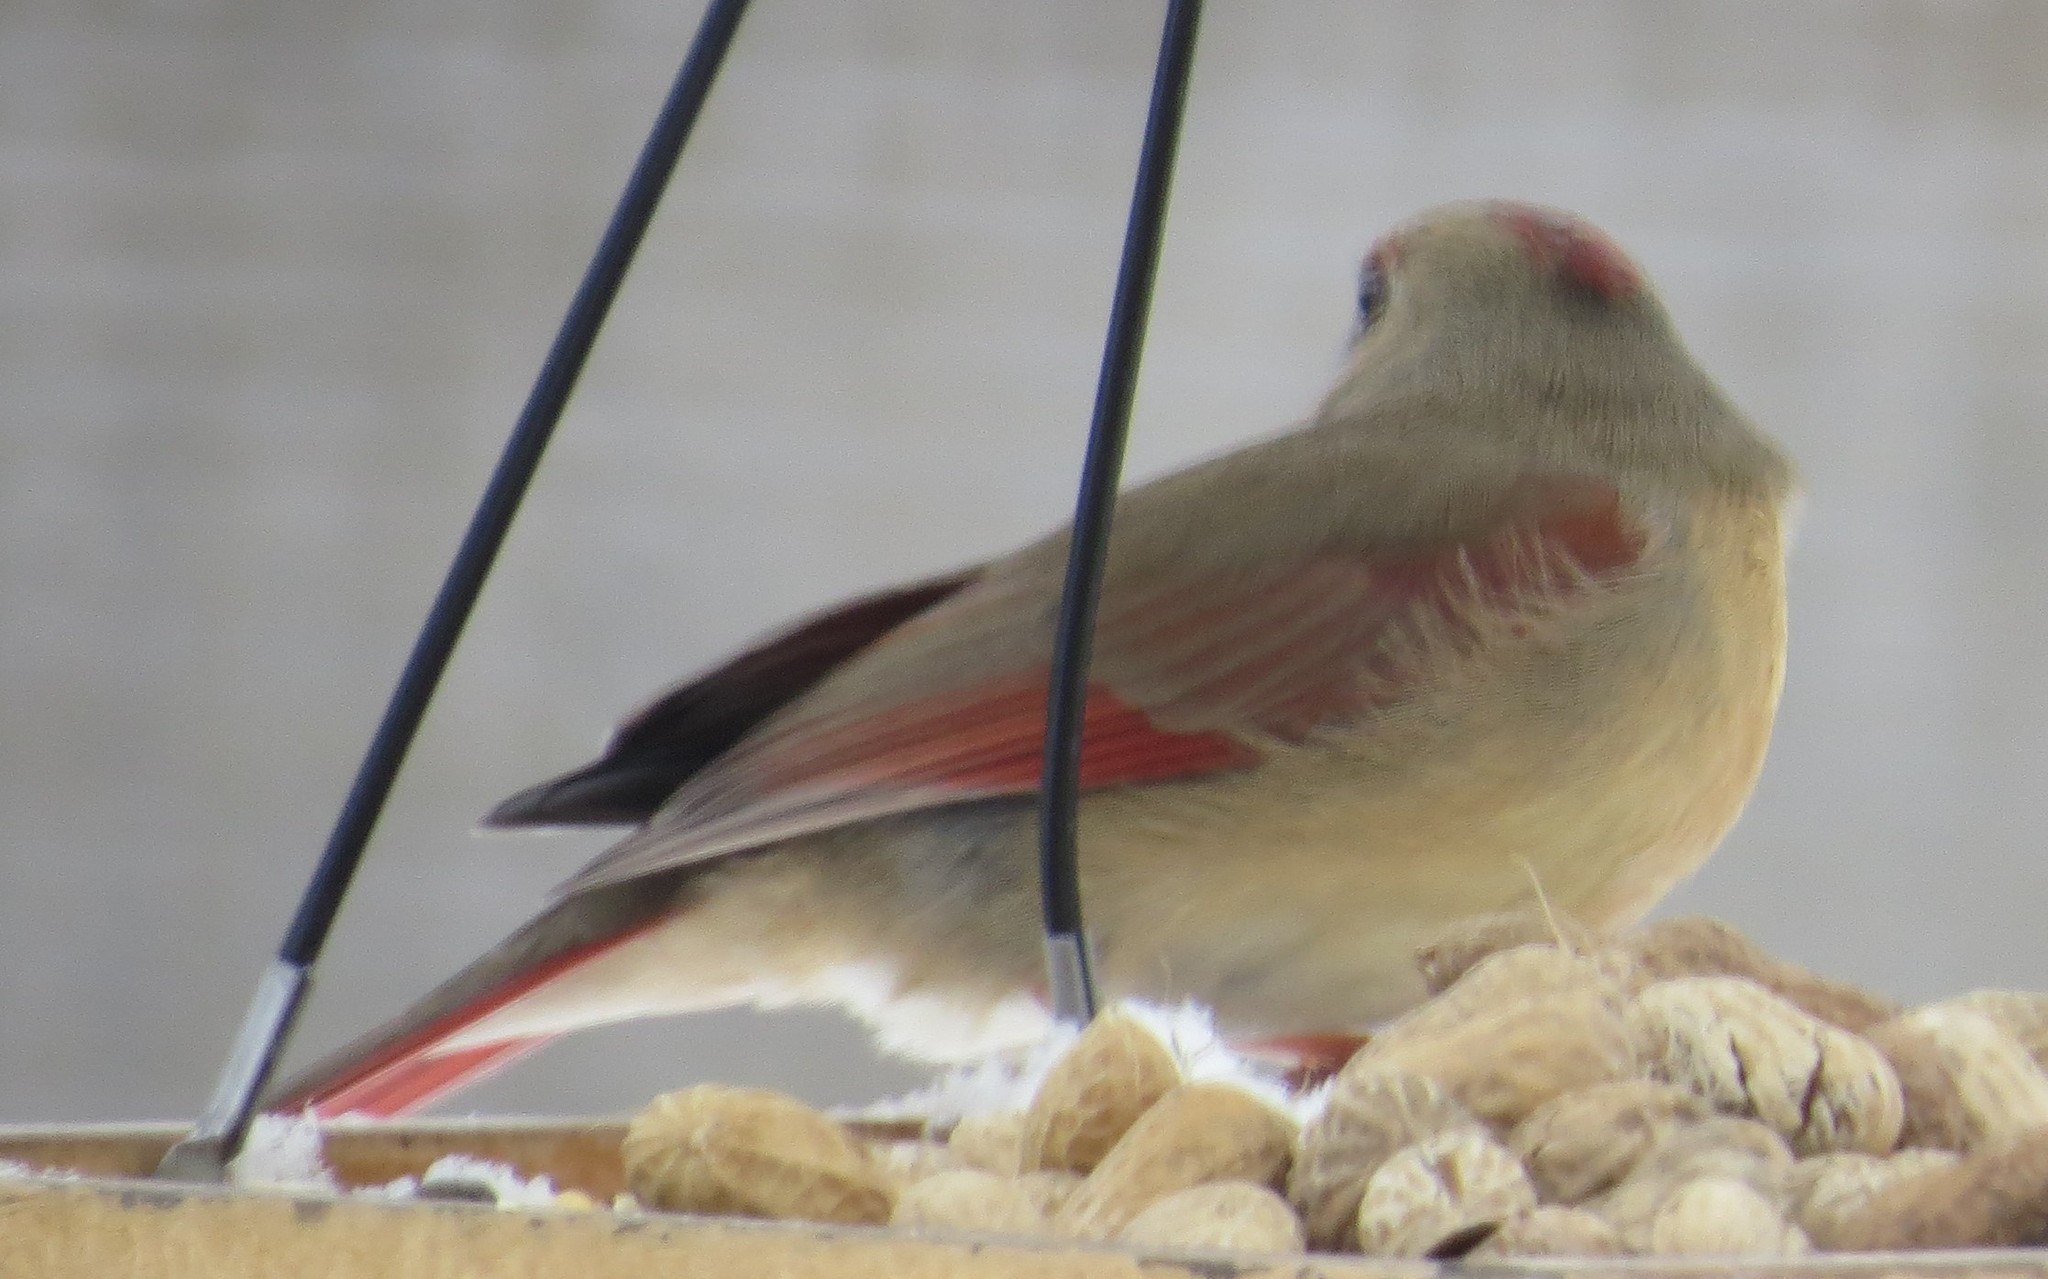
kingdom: Animalia
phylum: Chordata
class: Aves
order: Passeriformes
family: Cardinalidae
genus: Cardinalis
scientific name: Cardinalis cardinalis
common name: Northern cardinal
